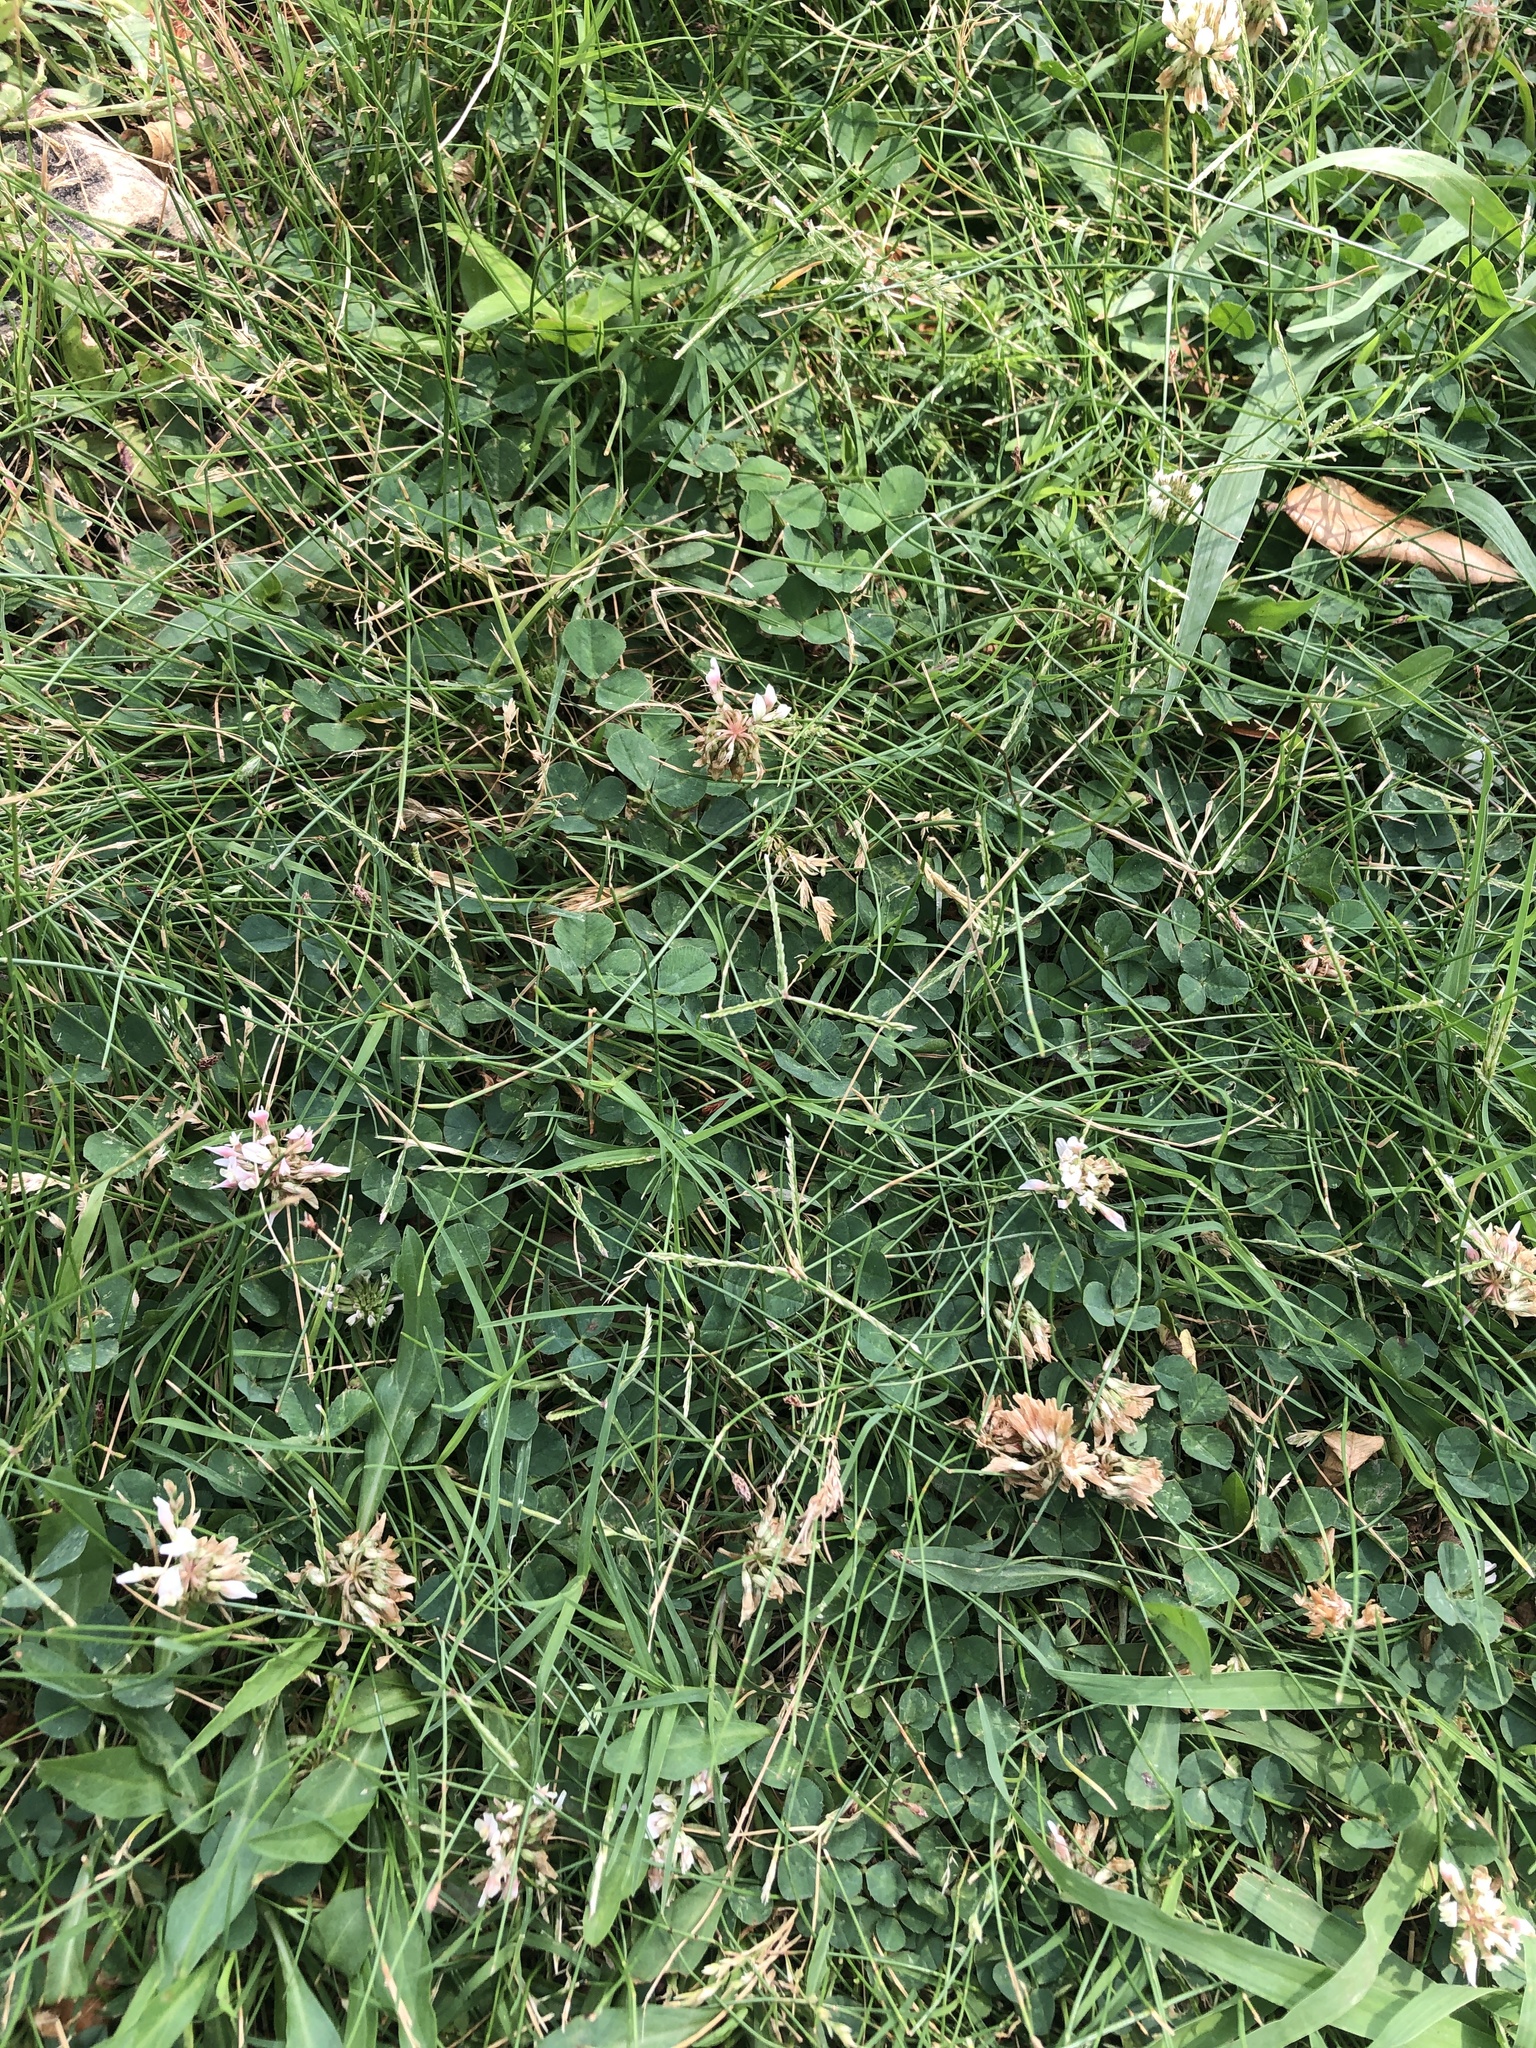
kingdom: Plantae
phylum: Tracheophyta
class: Magnoliopsida
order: Fabales
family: Fabaceae
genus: Trifolium
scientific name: Trifolium repens
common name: White clover
